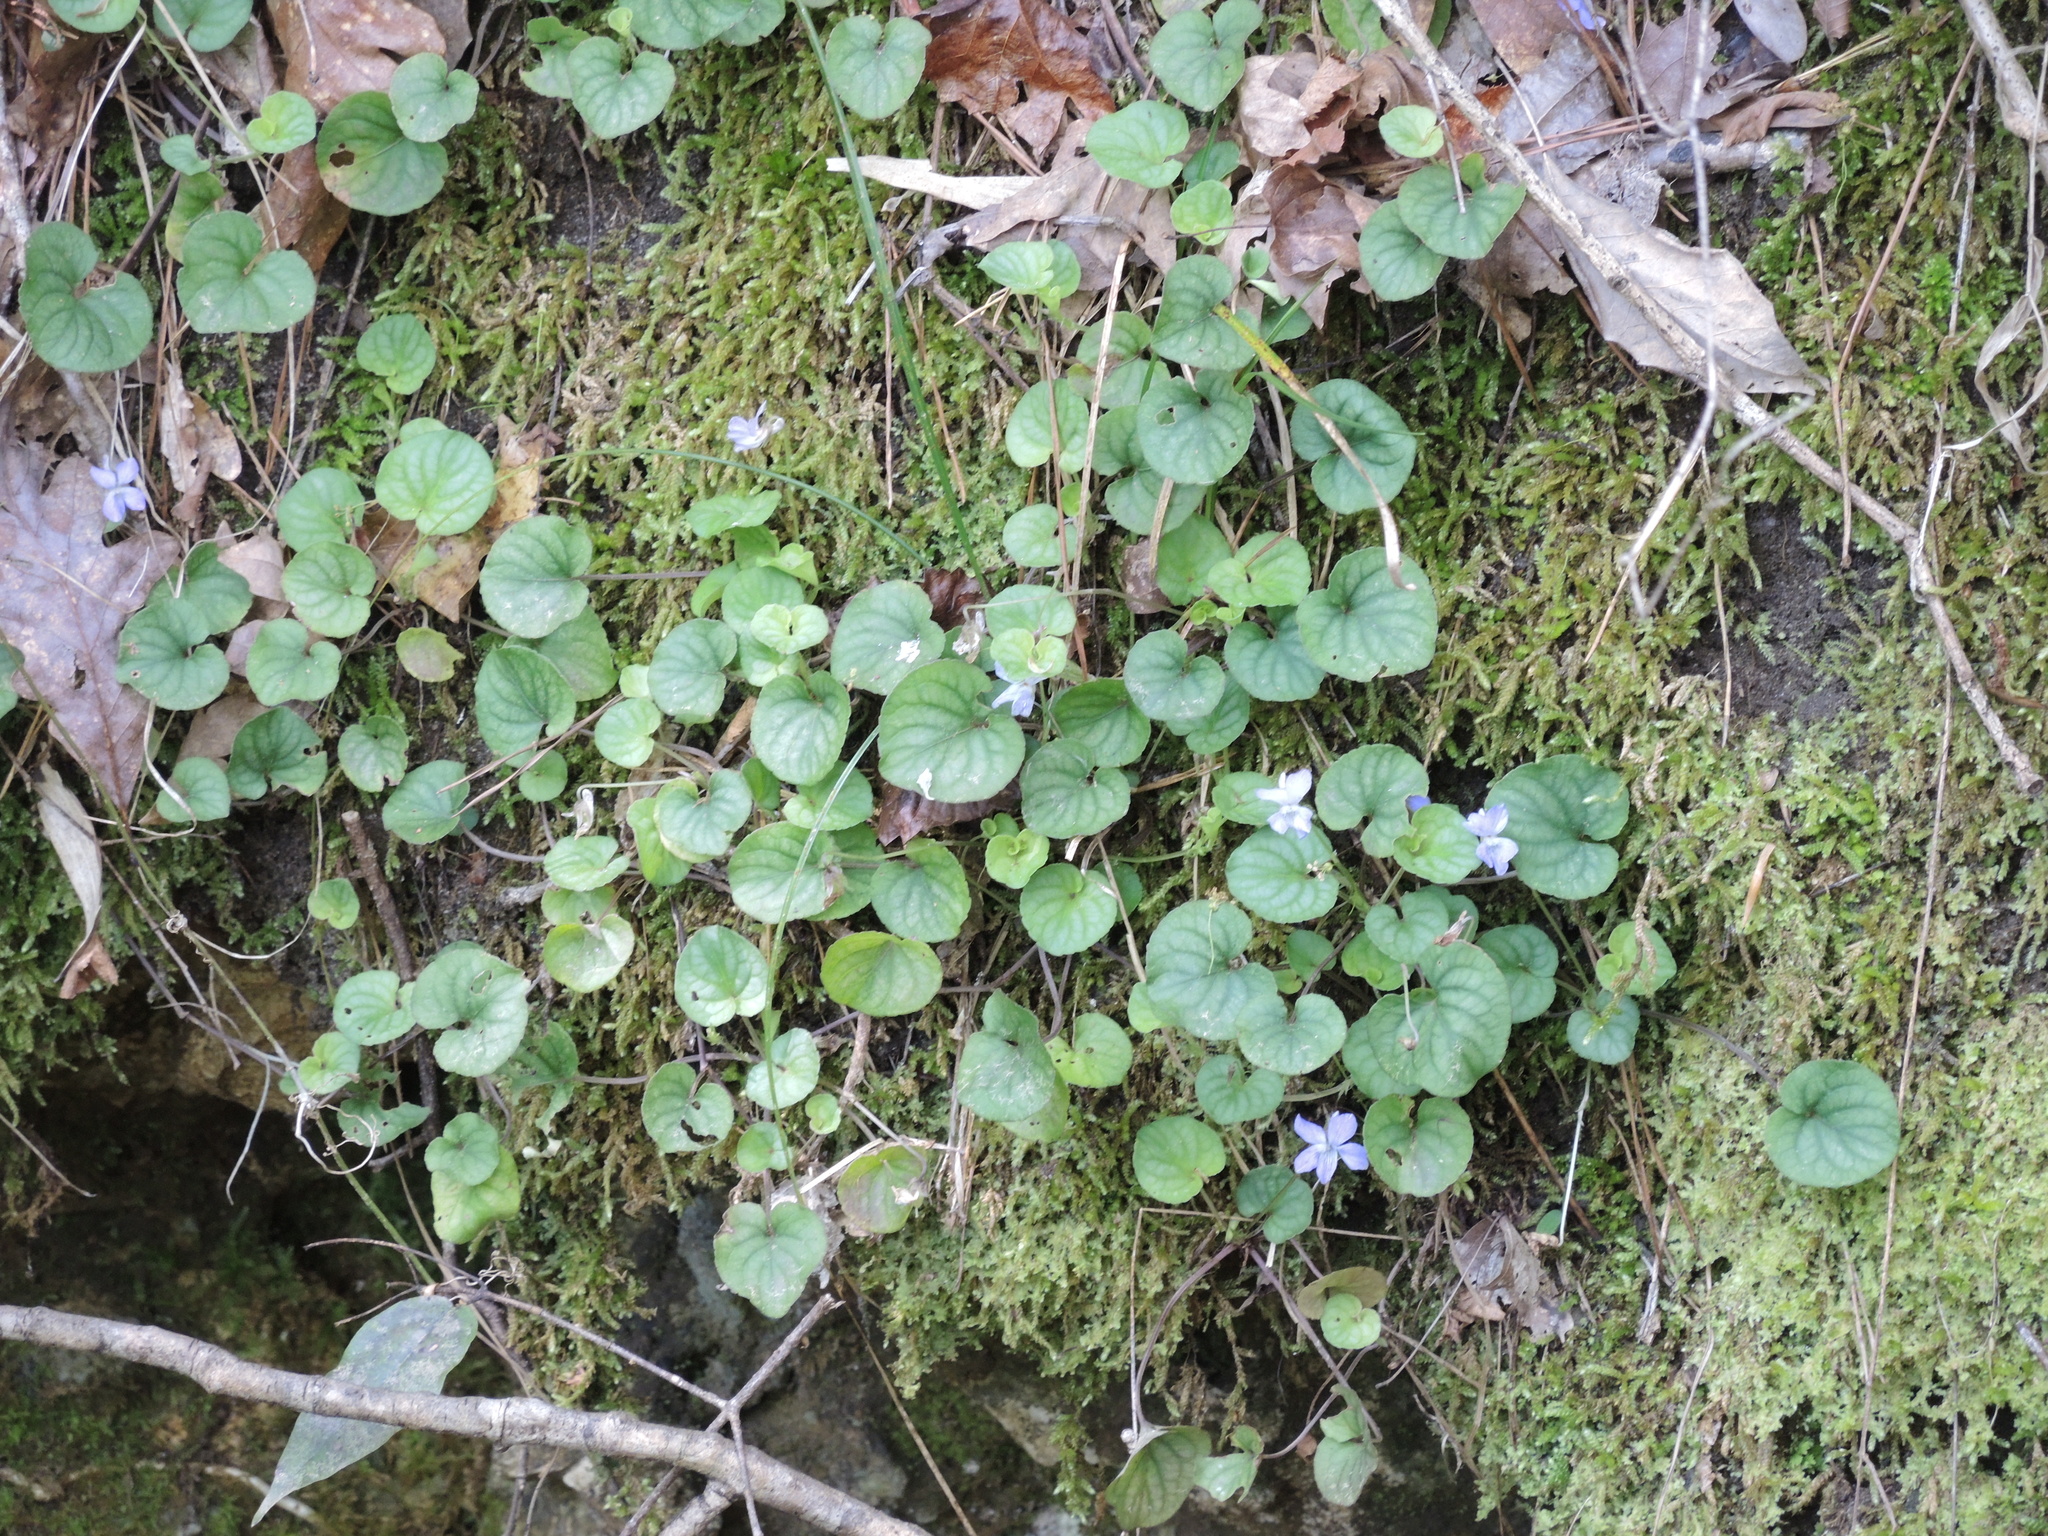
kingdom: Plantae
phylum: Tracheophyta
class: Magnoliopsida
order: Malpighiales
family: Violaceae
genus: Viola
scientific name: Viola walteri
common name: Prostrate southern violet
